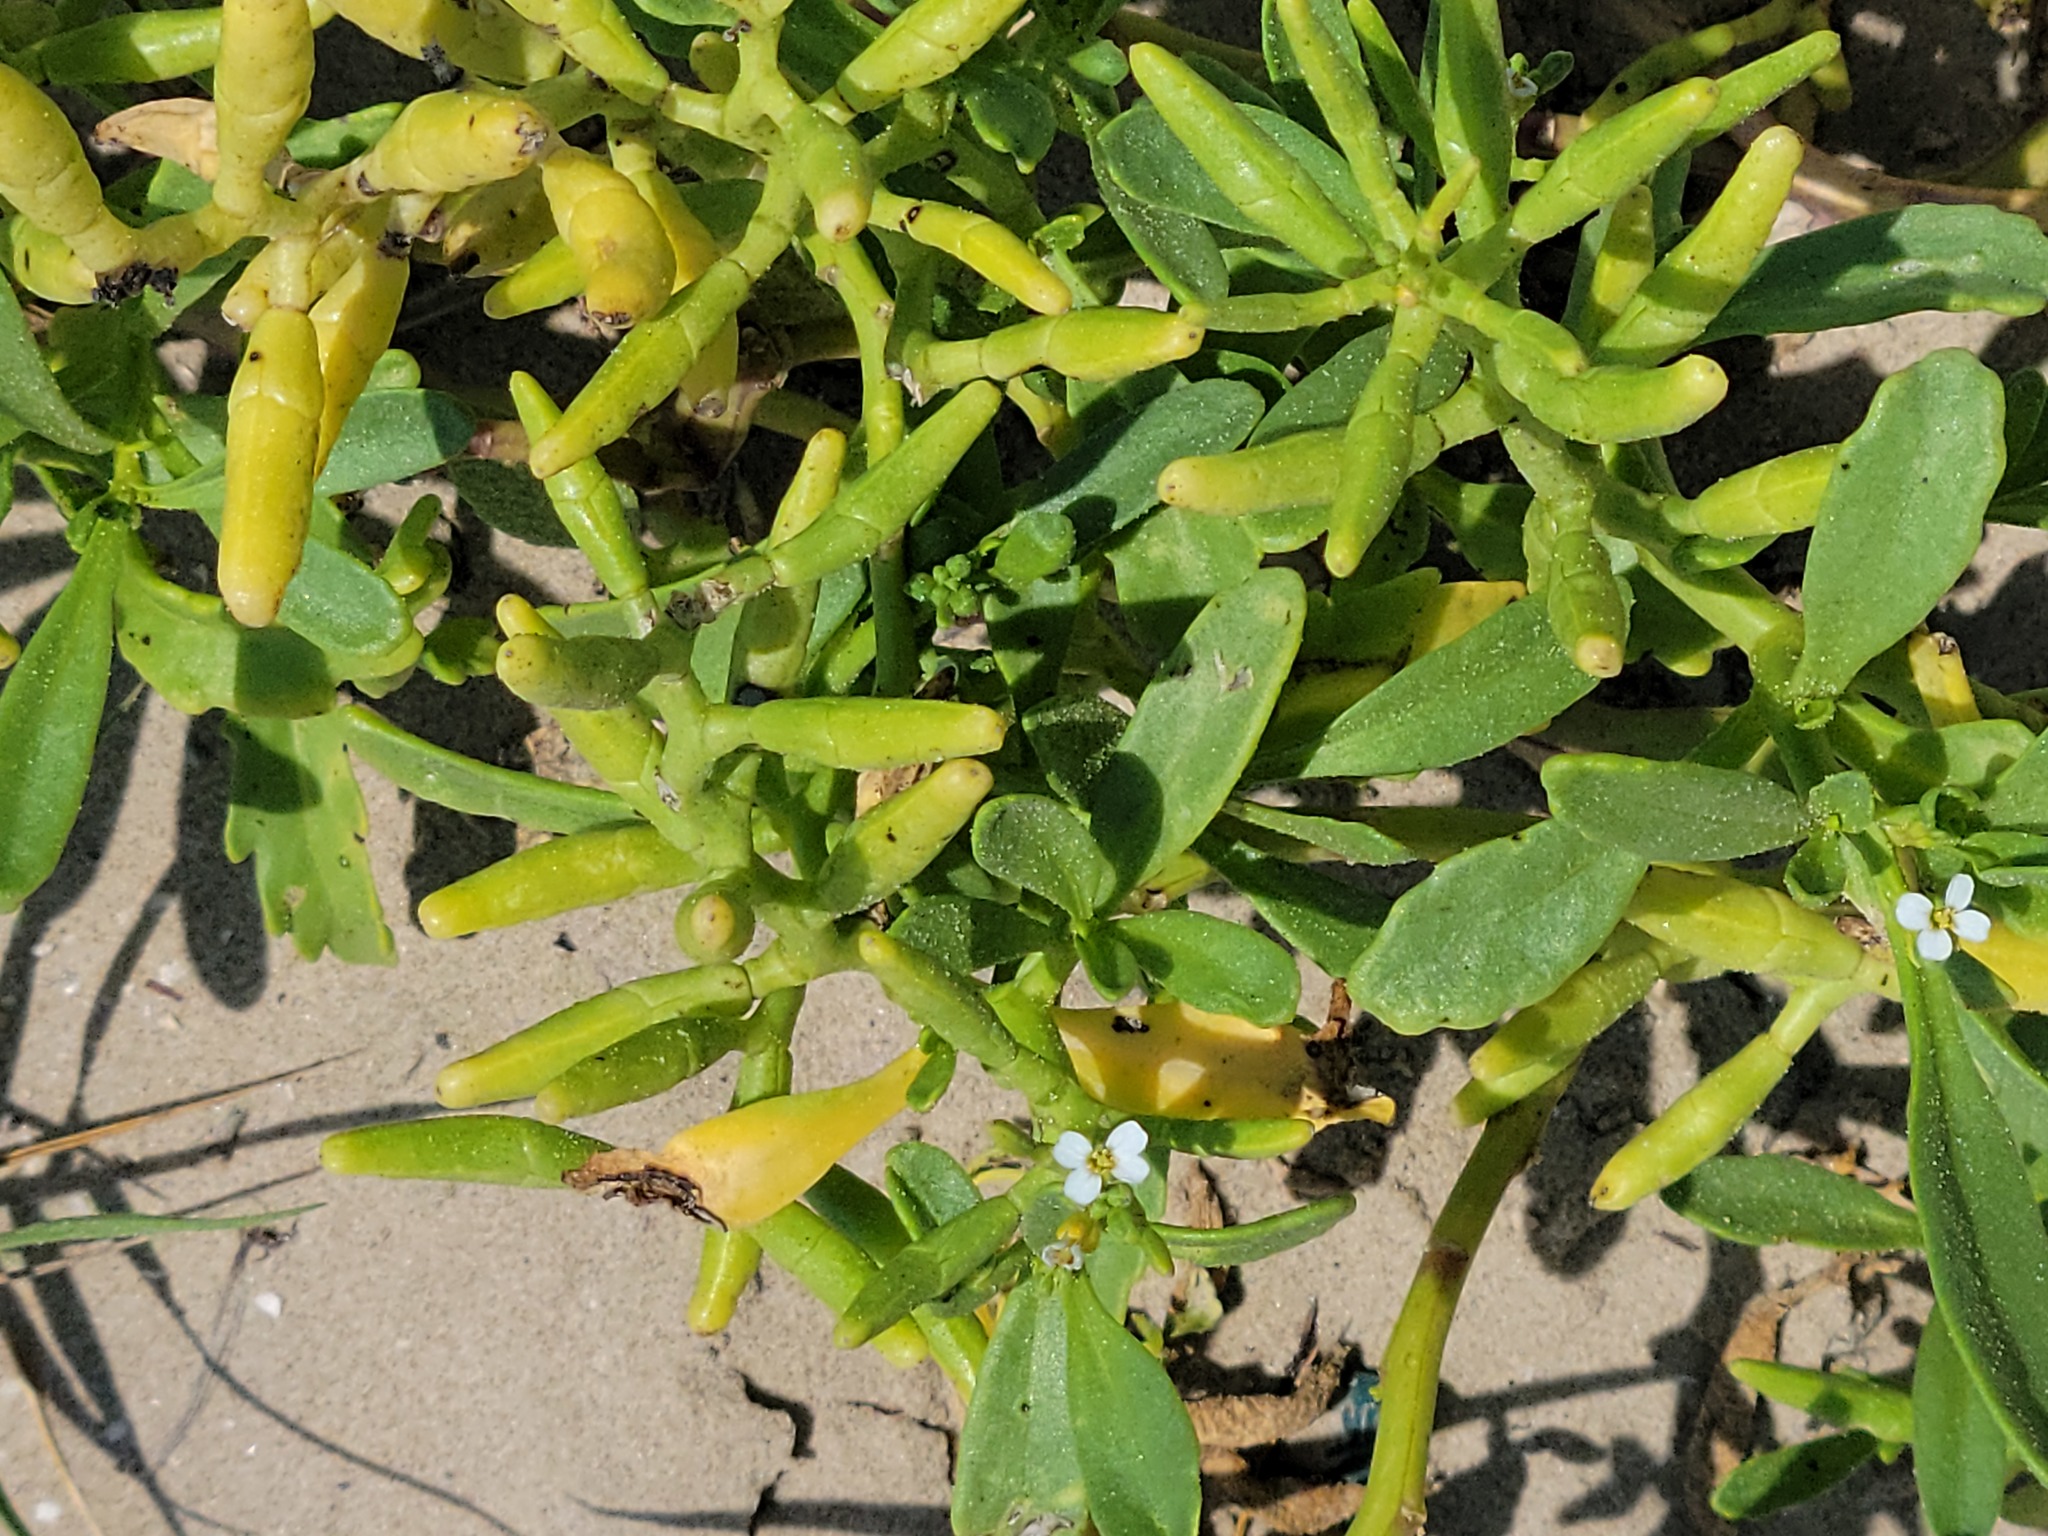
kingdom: Plantae
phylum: Tracheophyta
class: Magnoliopsida
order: Brassicales
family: Brassicaceae
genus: Cakile
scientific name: Cakile lanceolata
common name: Sea rocket
